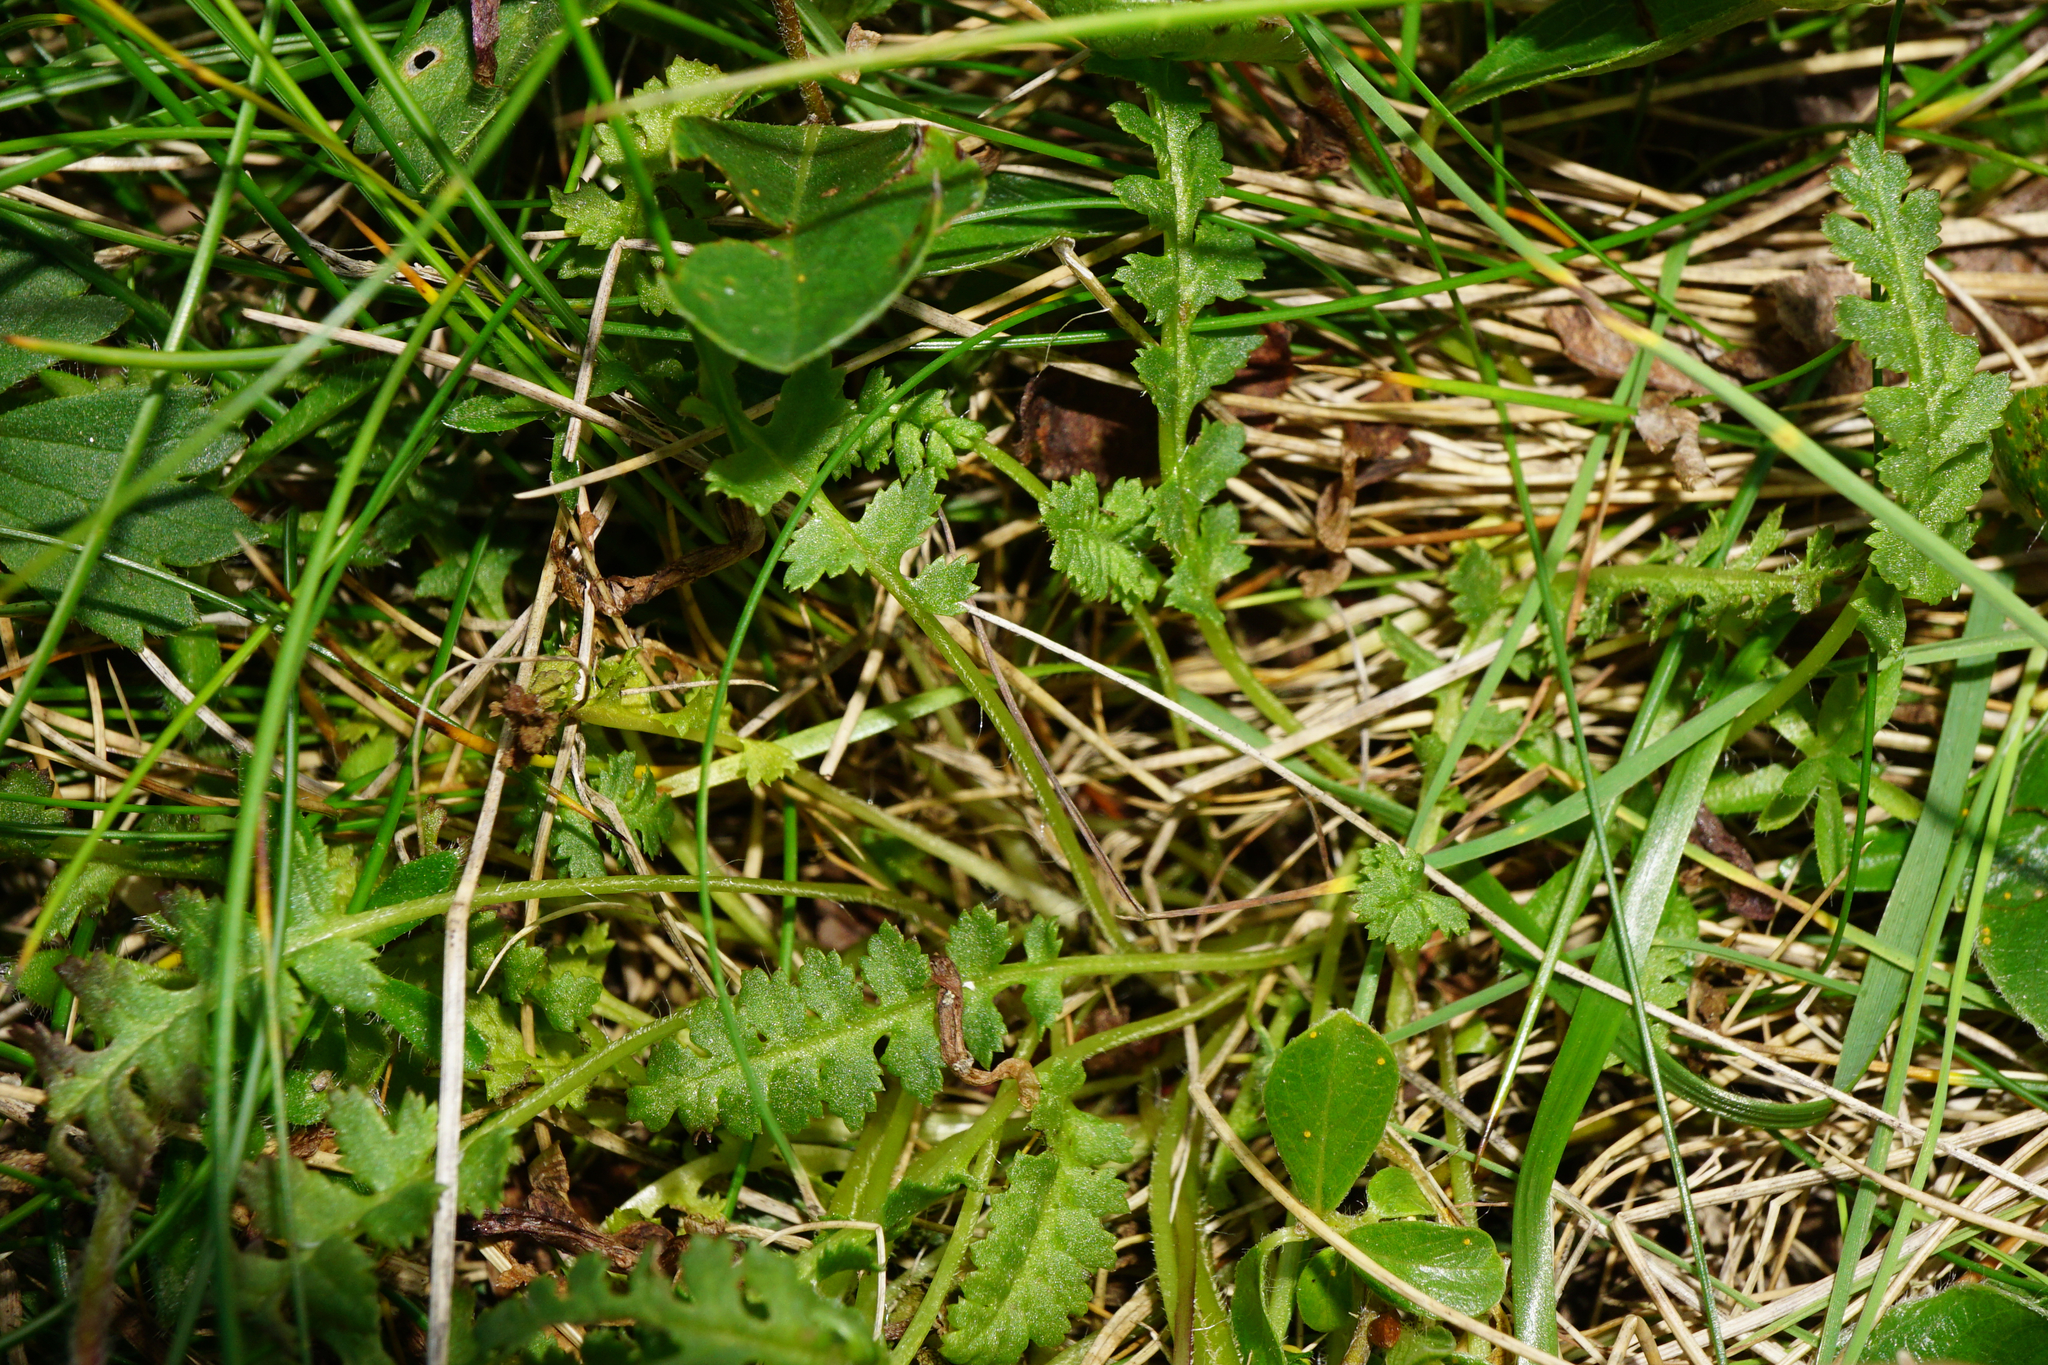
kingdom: Plantae
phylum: Tracheophyta
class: Magnoliopsida
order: Lamiales
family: Orobanchaceae
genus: Pedicularis
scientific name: Pedicularis verticillata
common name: Whorled lousewort
